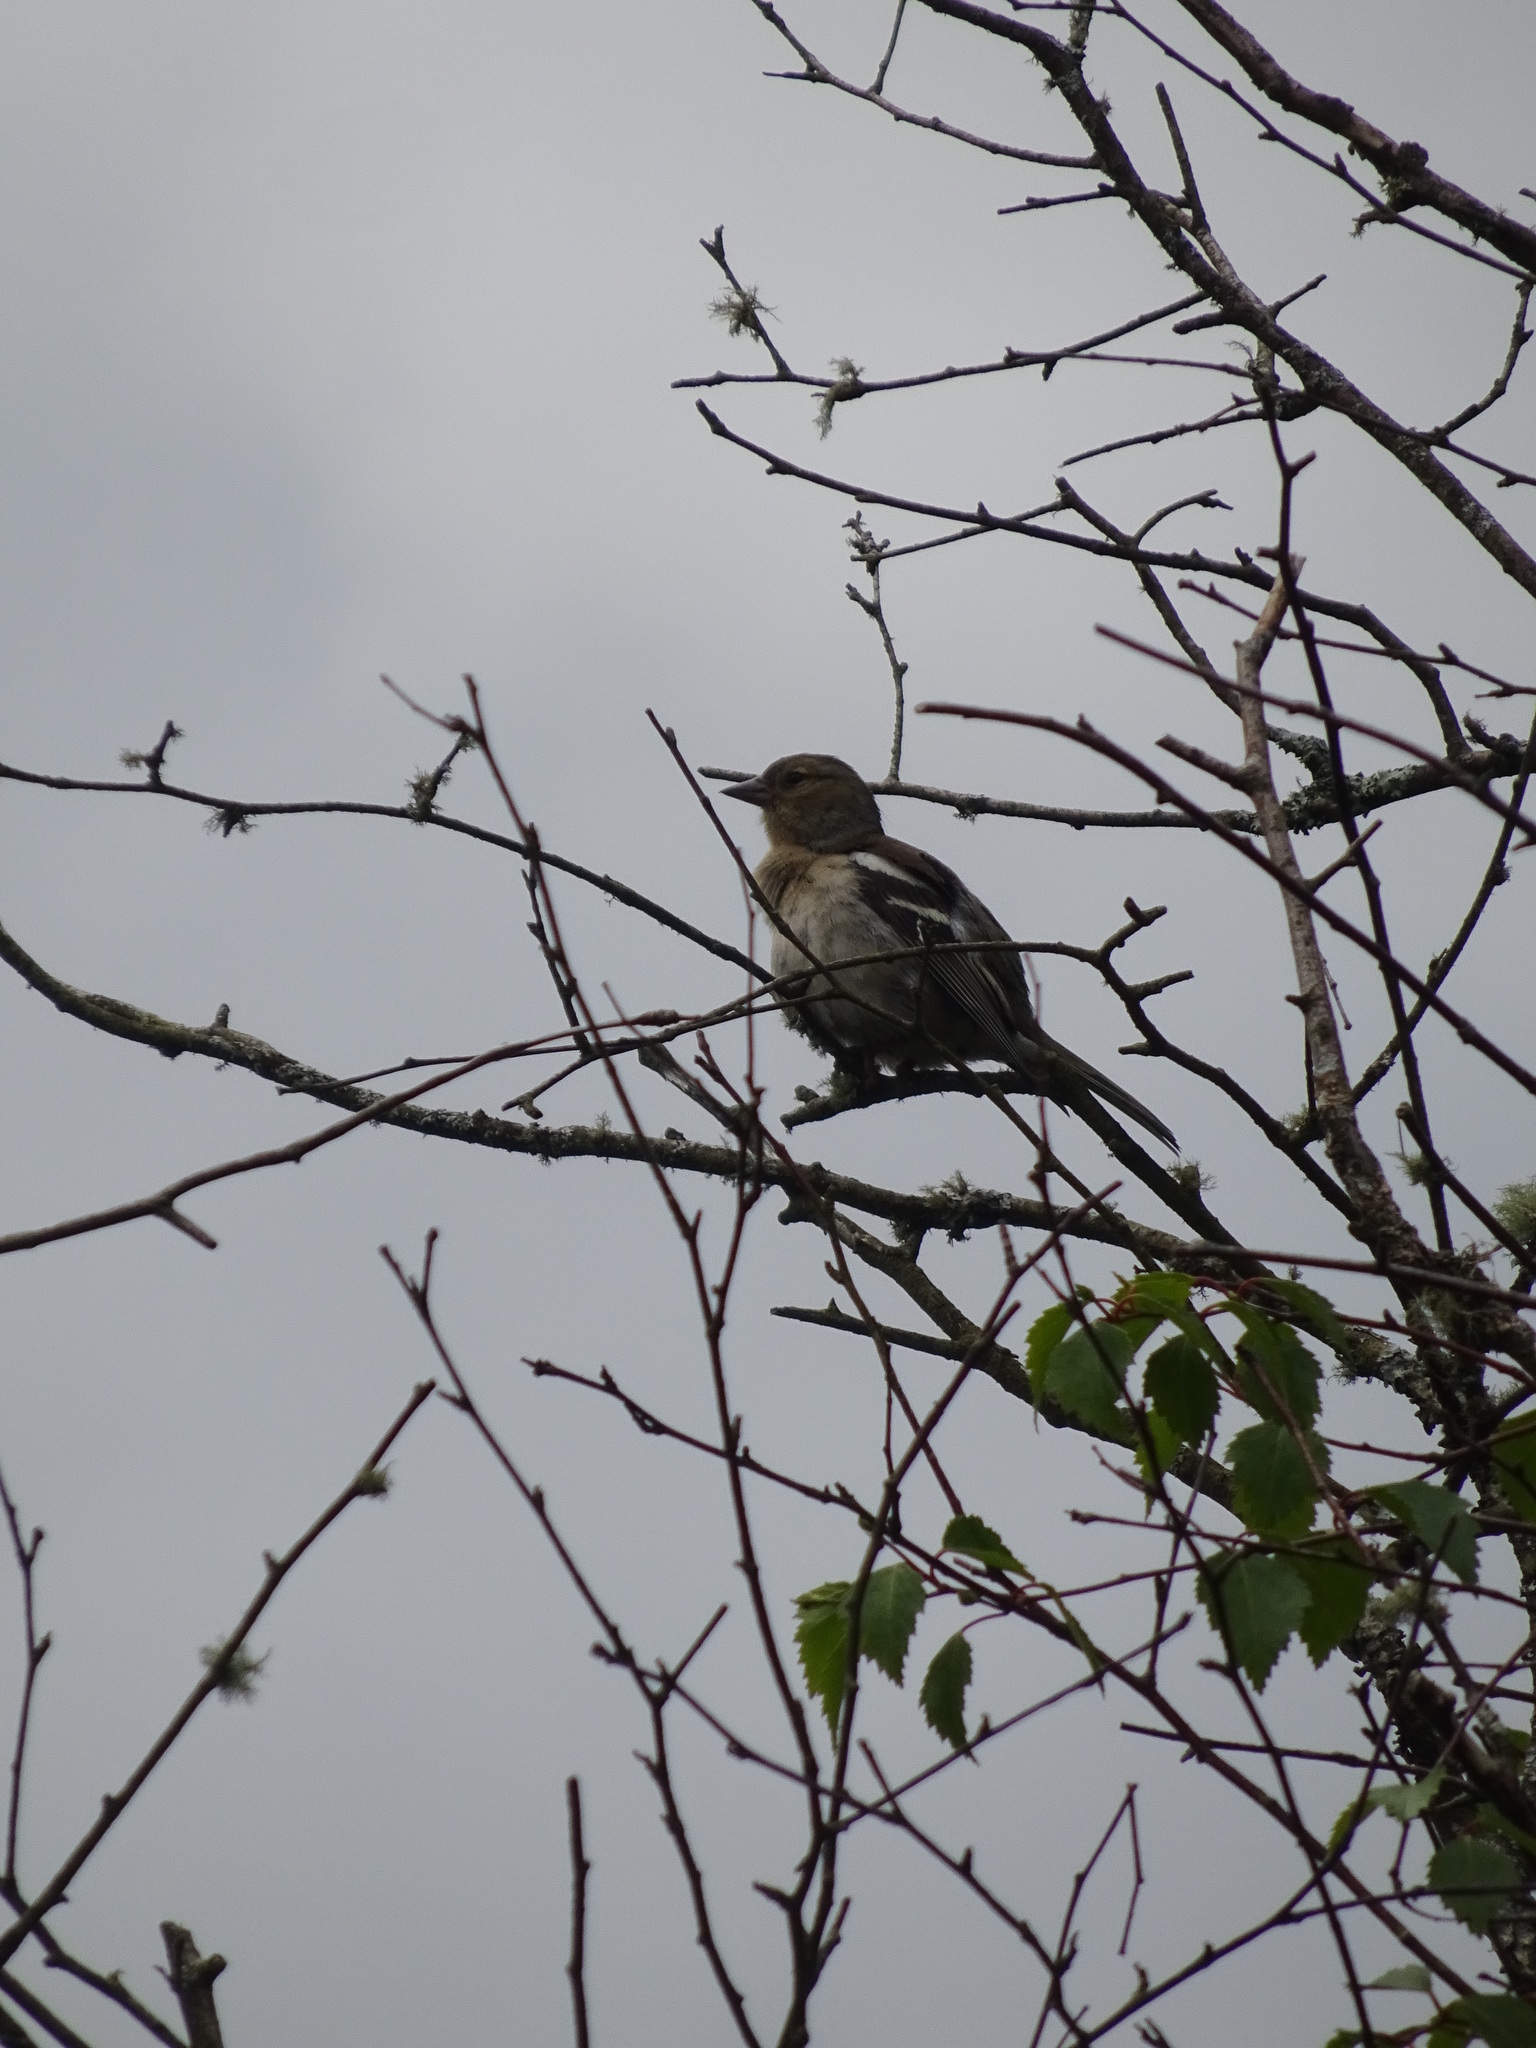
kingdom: Animalia
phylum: Chordata
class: Aves
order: Passeriformes
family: Fringillidae
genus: Fringilla
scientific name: Fringilla coelebs
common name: Common chaffinch
